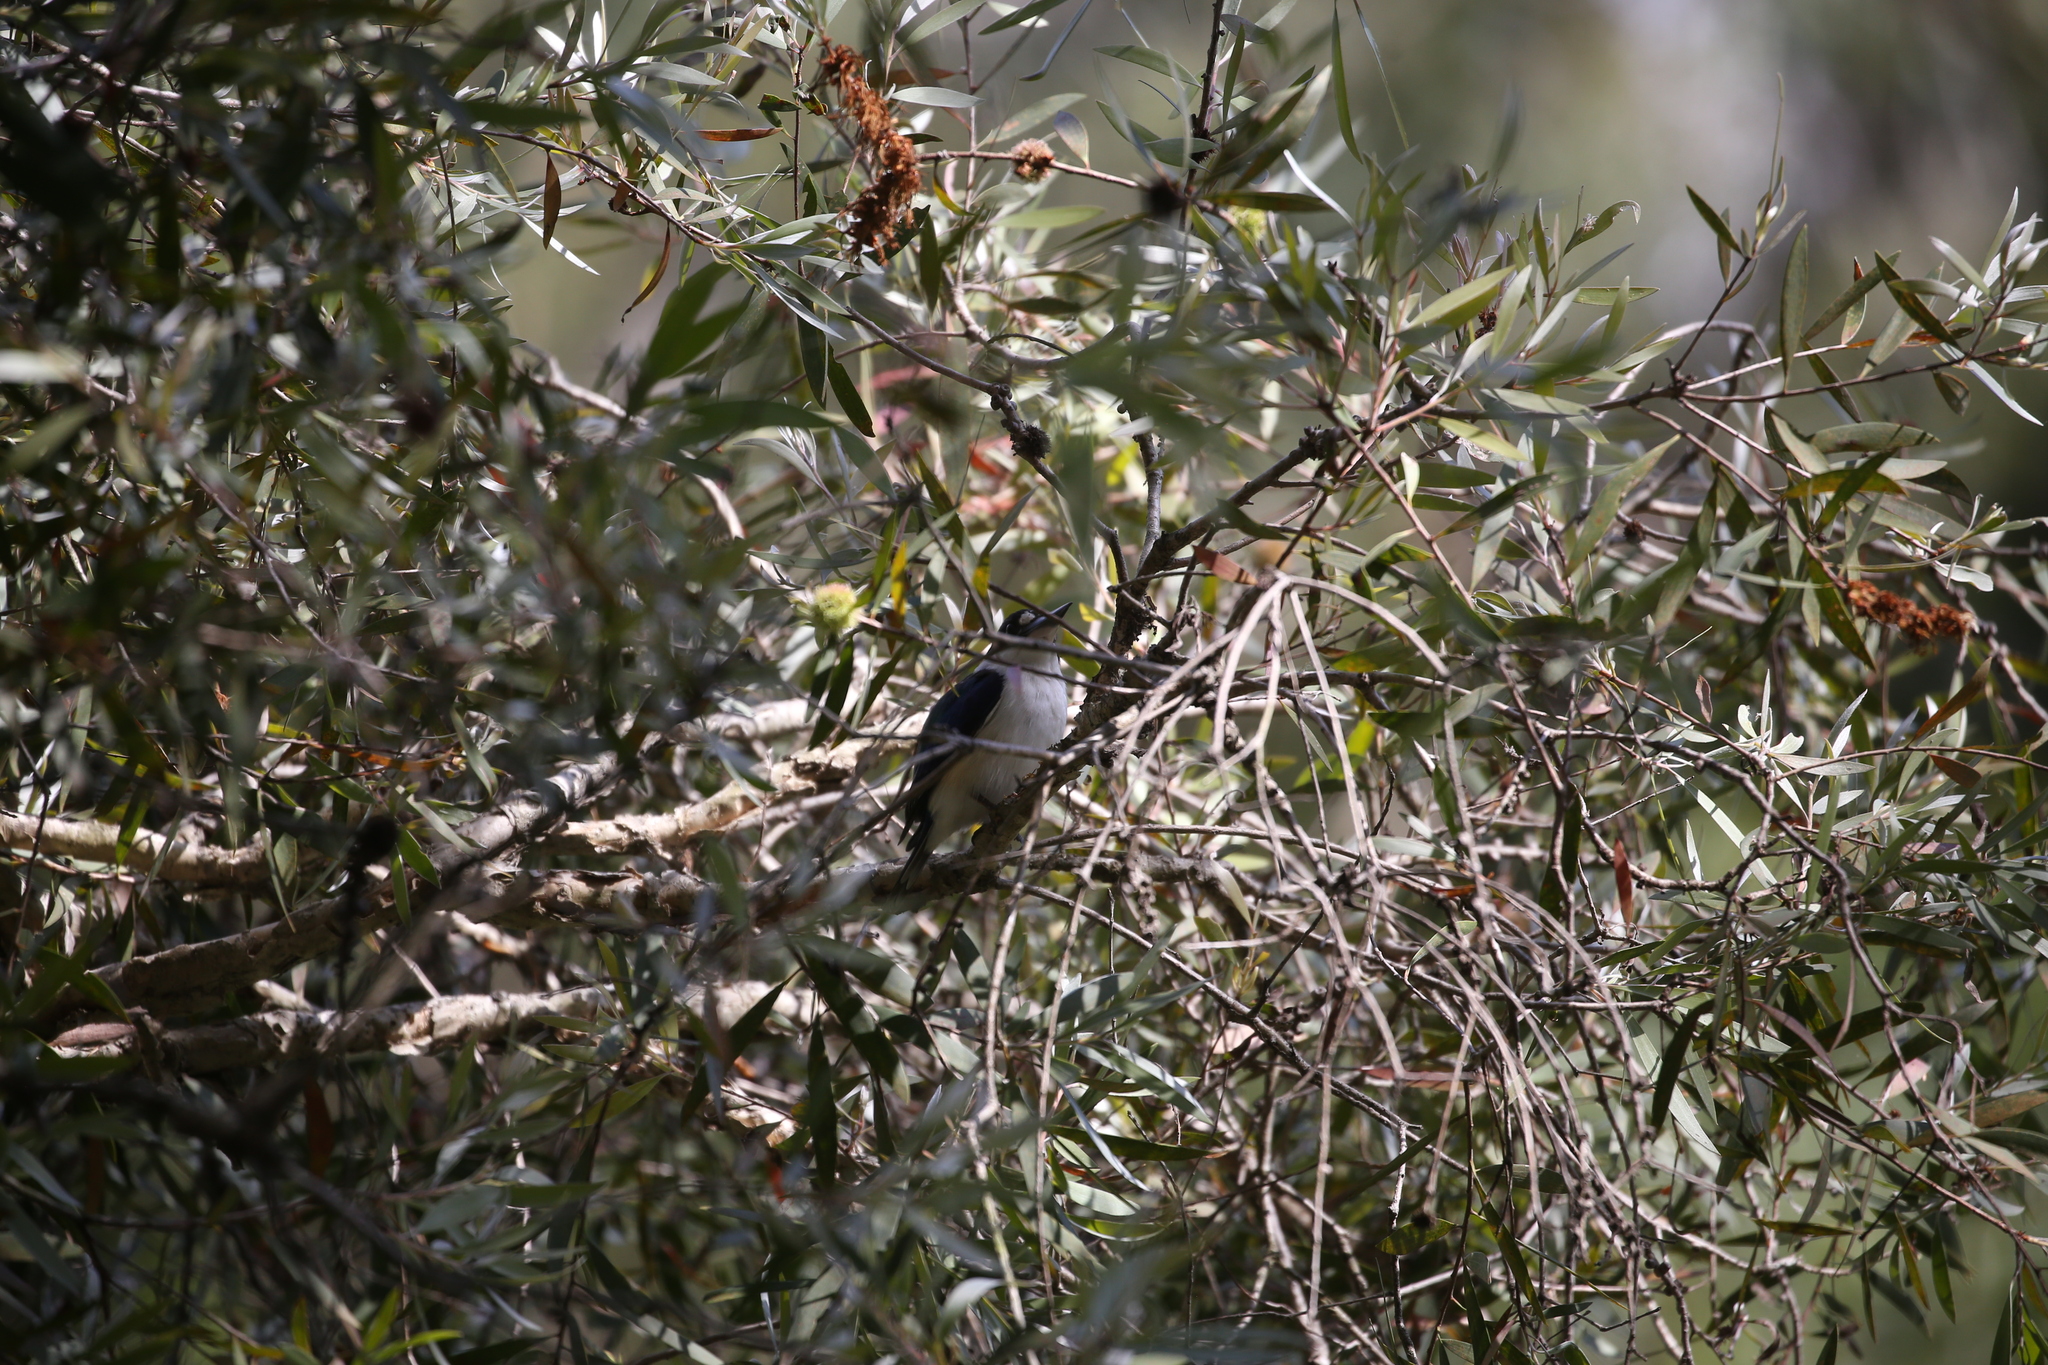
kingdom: Animalia
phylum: Chordata
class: Aves
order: Coraciiformes
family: Alcedinidae
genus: Todiramphus
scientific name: Todiramphus macleayii
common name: Forest kingfisher
